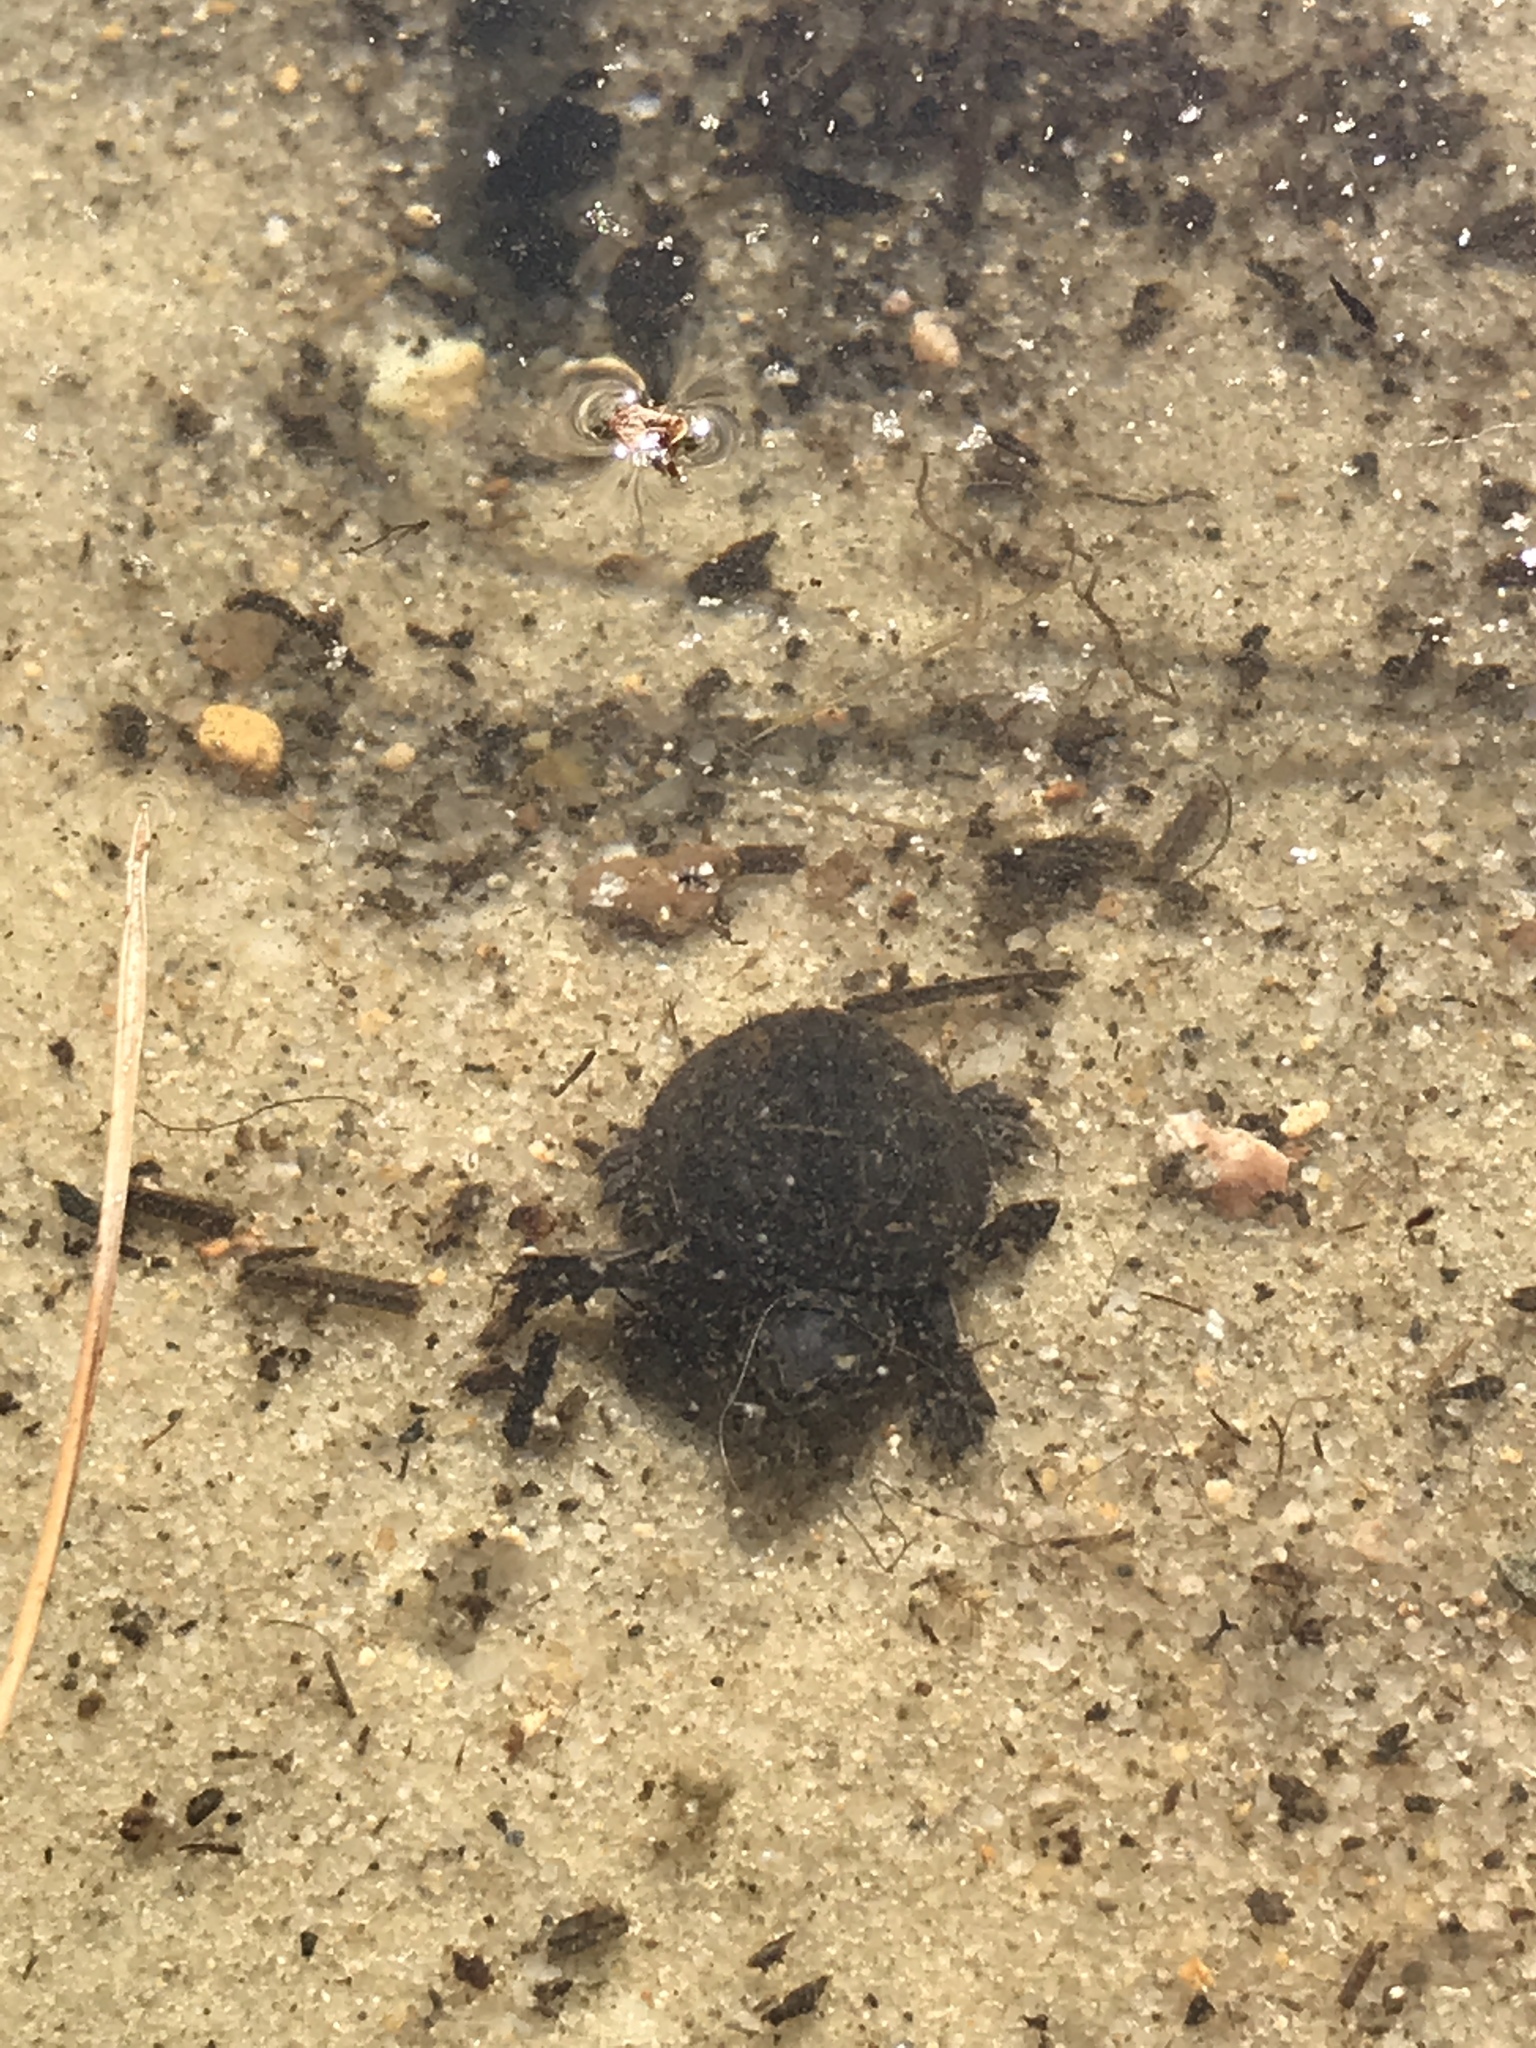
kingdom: Animalia
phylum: Chordata
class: Testudines
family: Kinosternidae
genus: Sternotherus
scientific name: Sternotherus odoratus
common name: Common musk turtle
